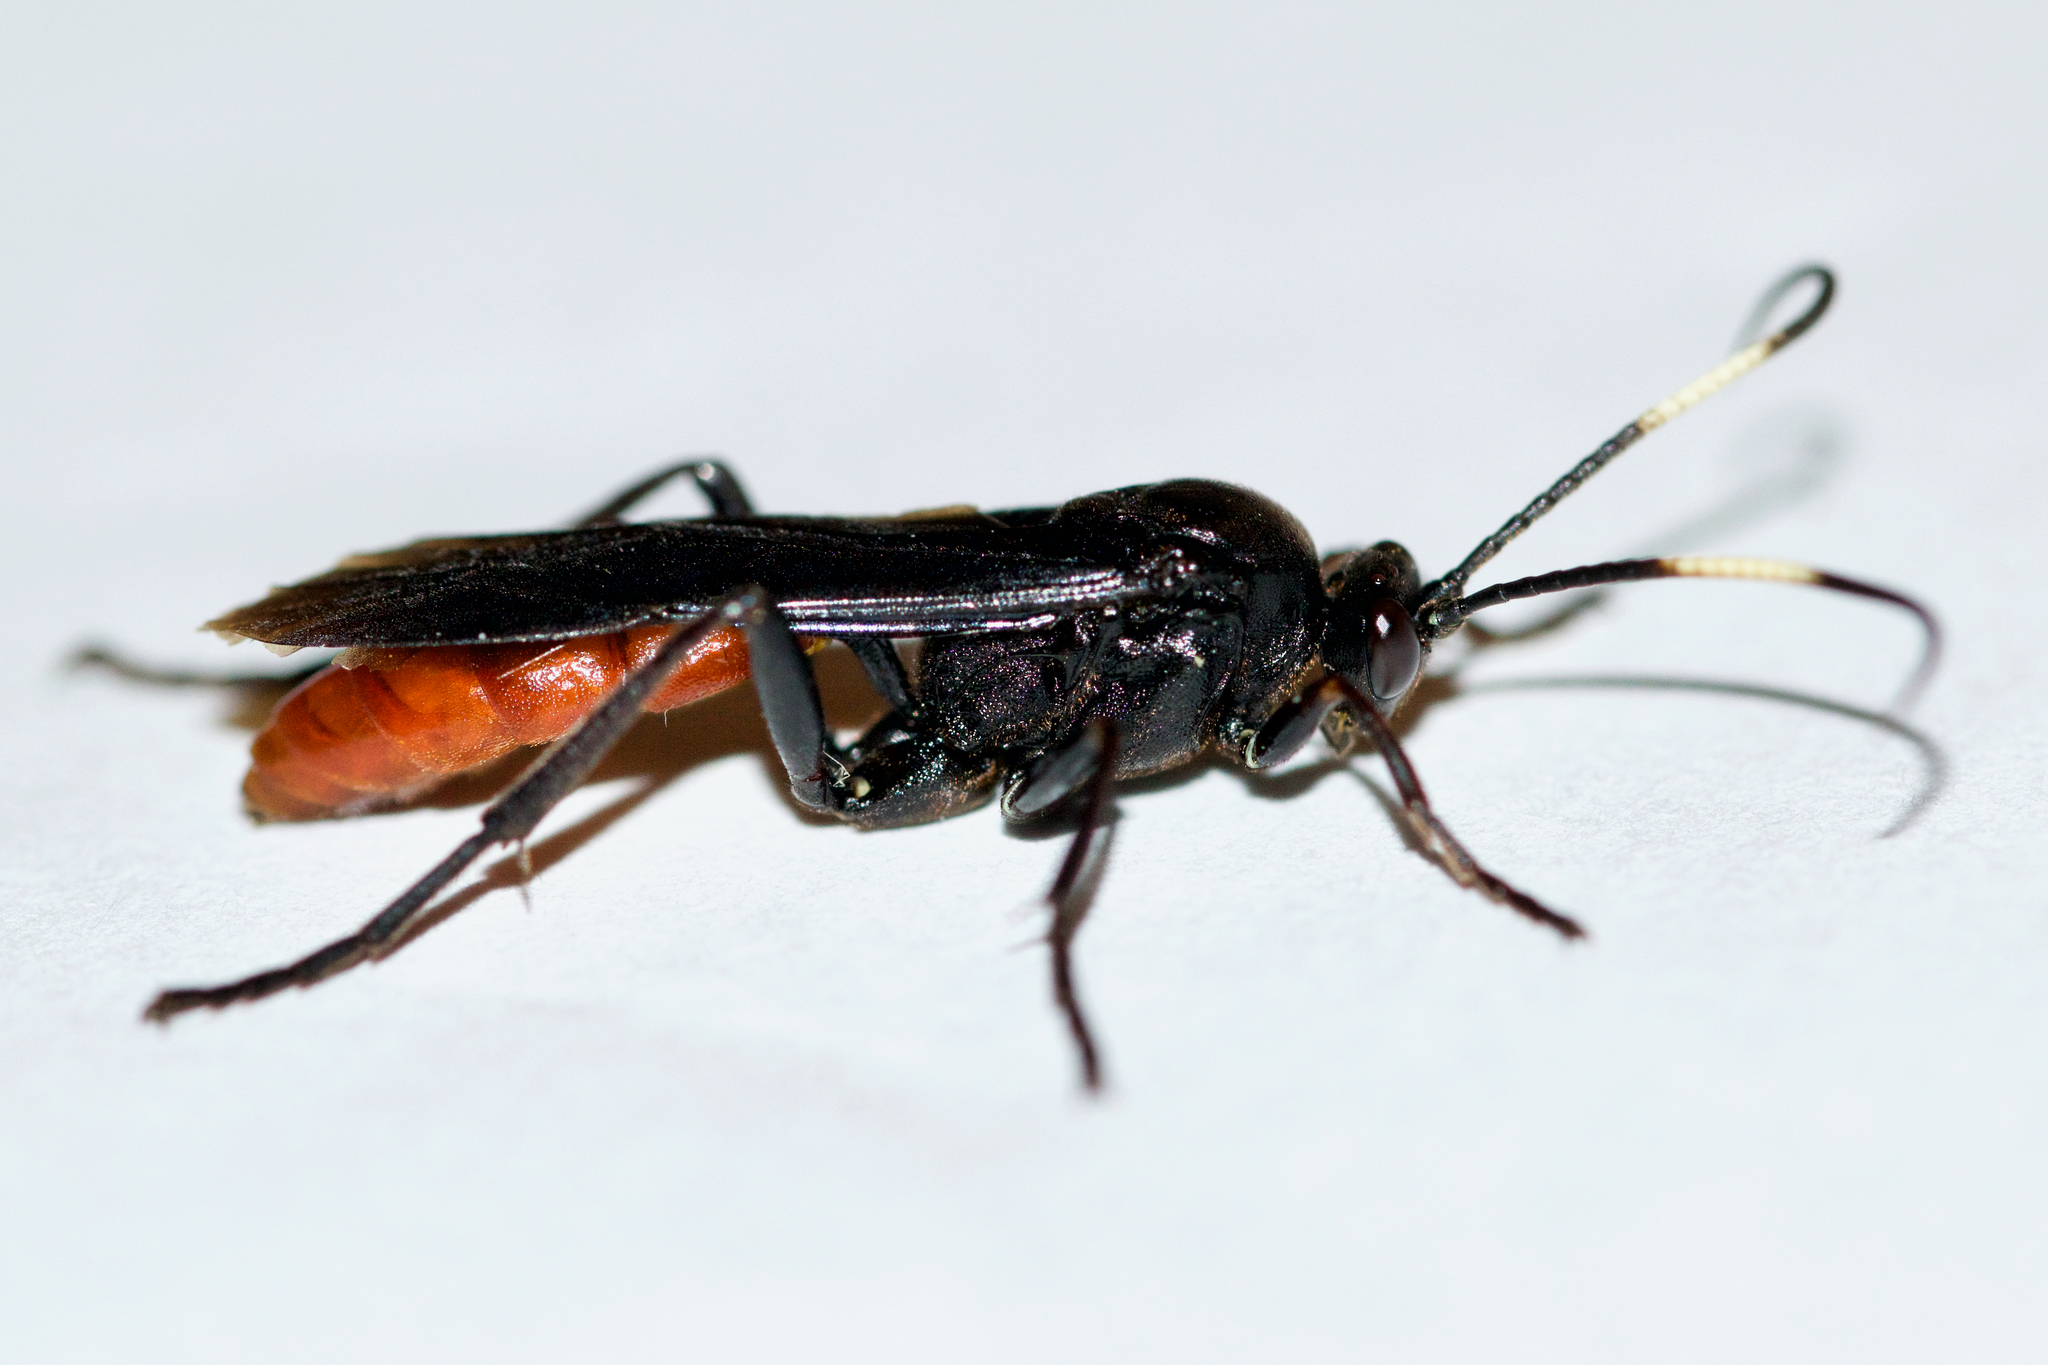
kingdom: Animalia
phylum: Arthropoda
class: Insecta
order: Hymenoptera
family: Ichneumonidae
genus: Protichneumon
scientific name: Protichneumon grandis
